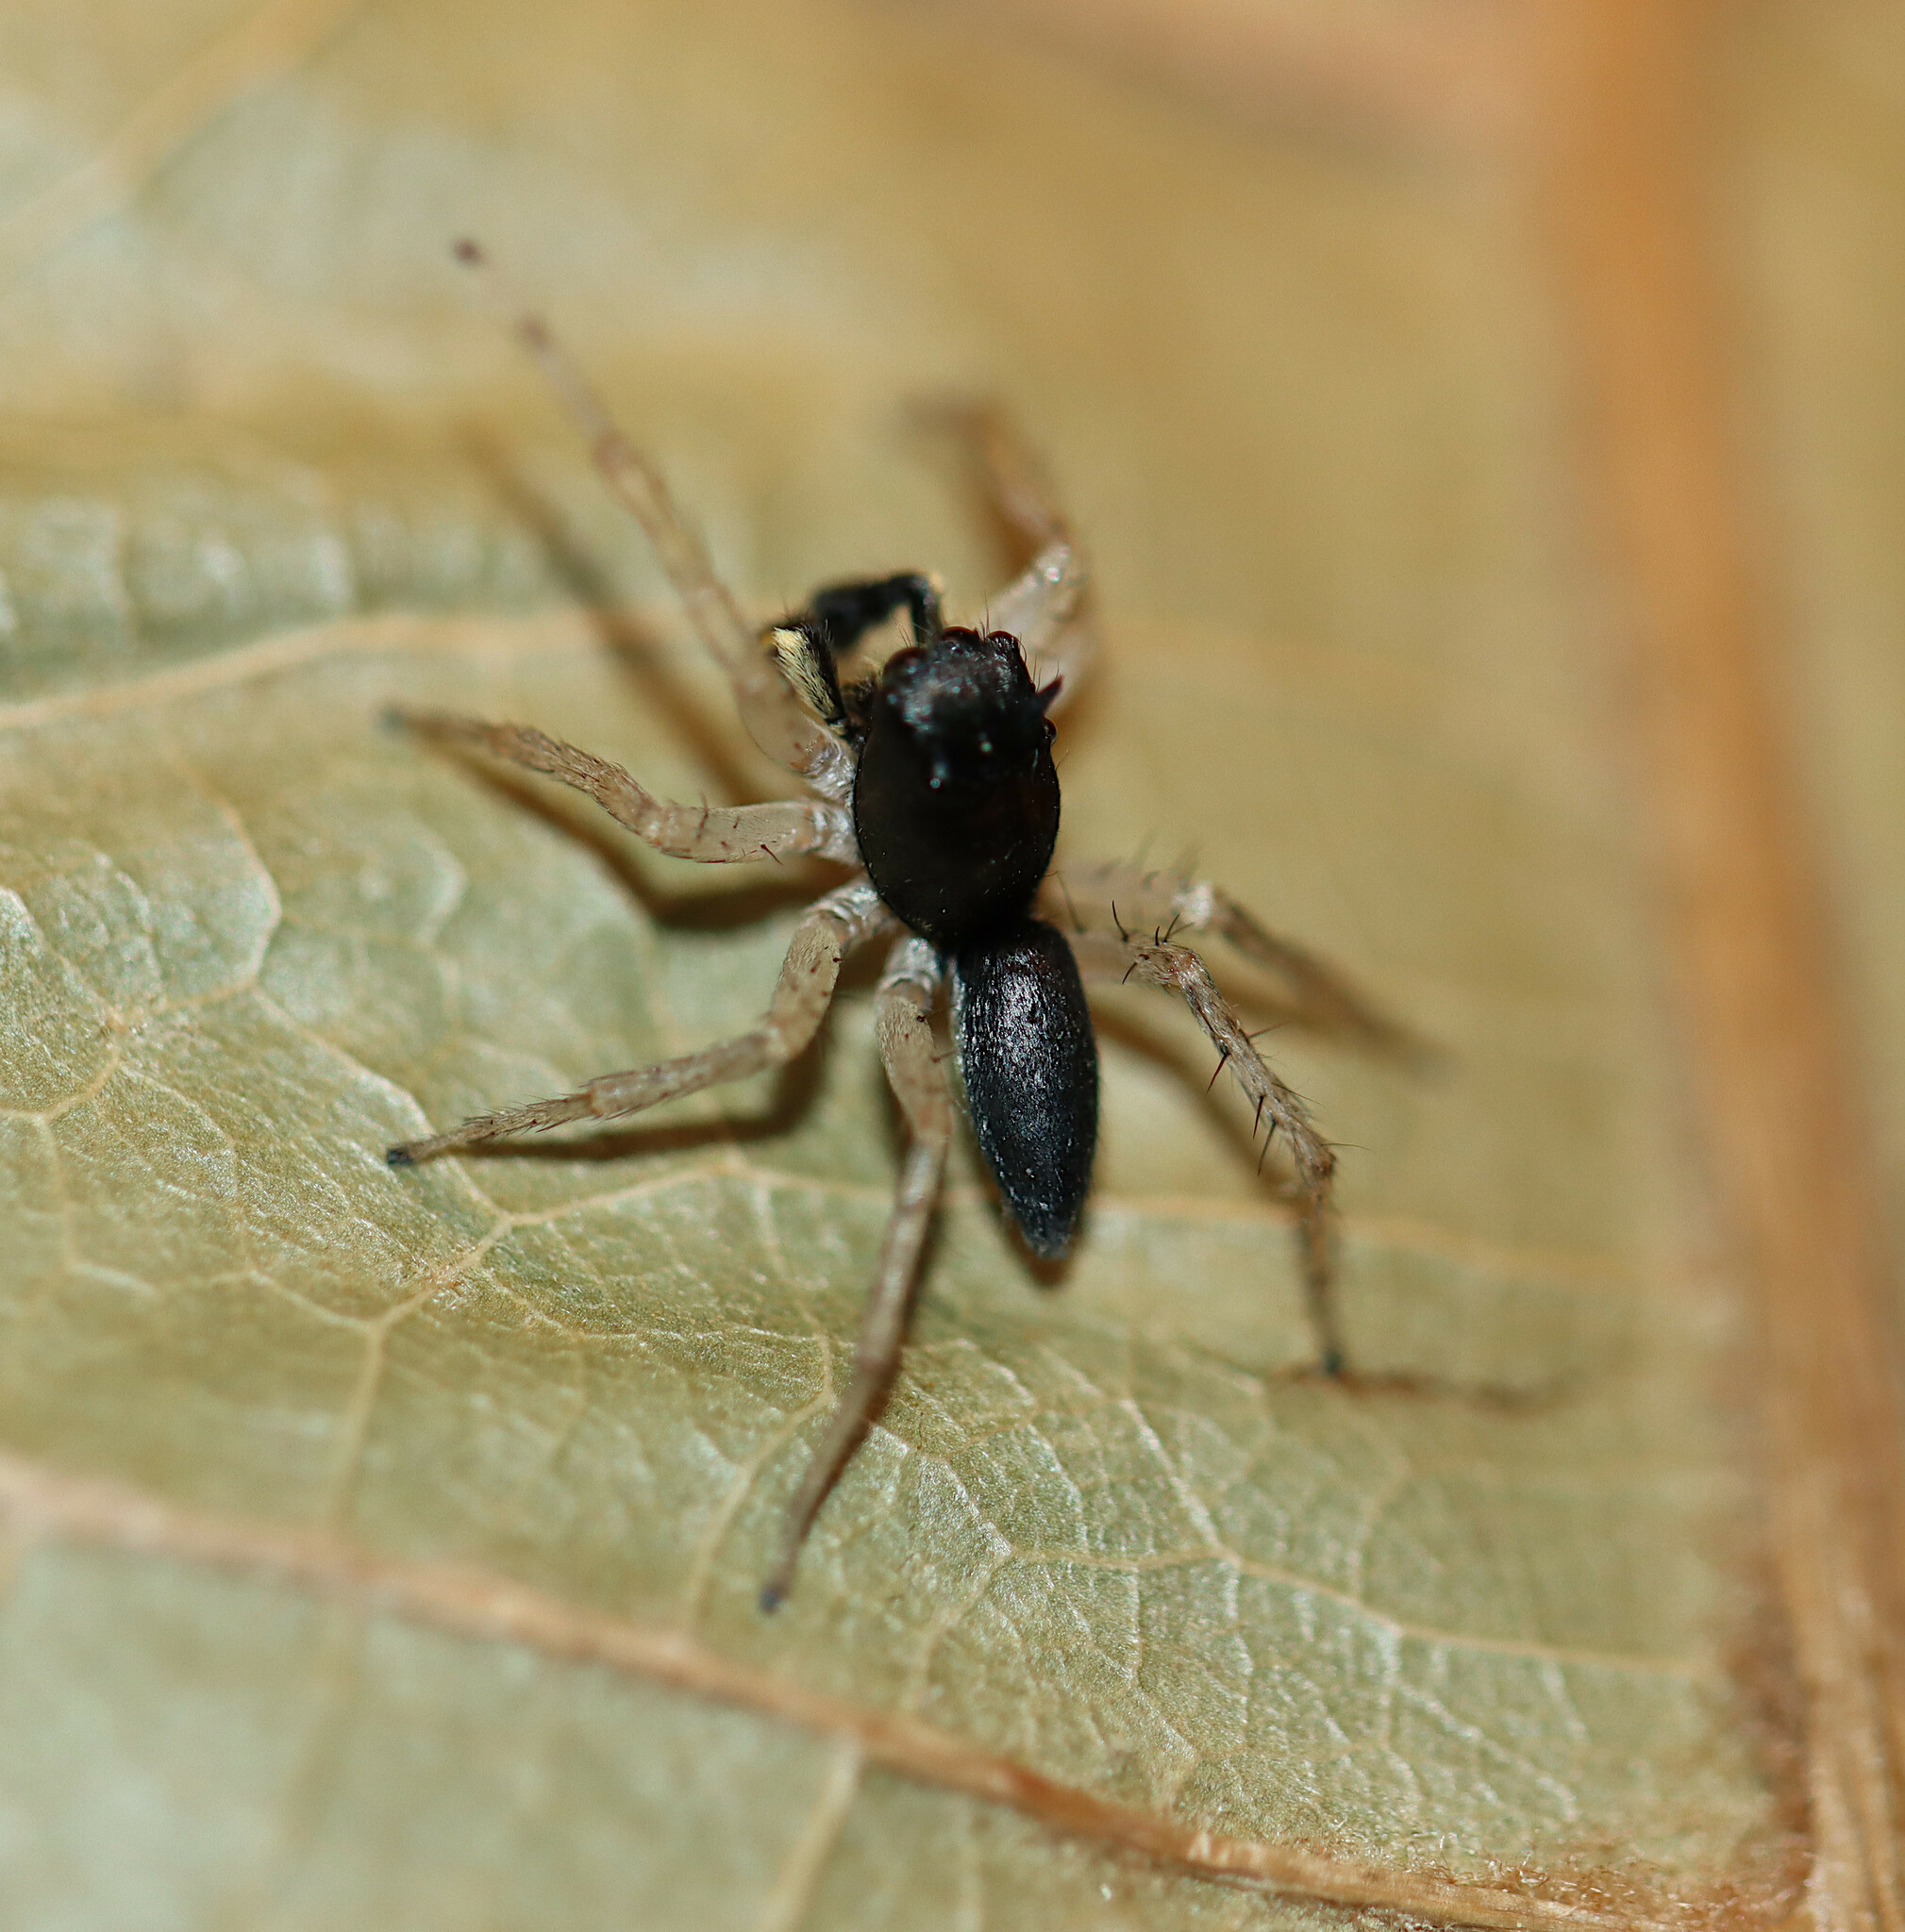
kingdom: Animalia
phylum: Arthropoda
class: Arachnida
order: Araneae
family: Salticidae
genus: Maevia
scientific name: Maevia inclemens
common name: Dimorphic jumper
